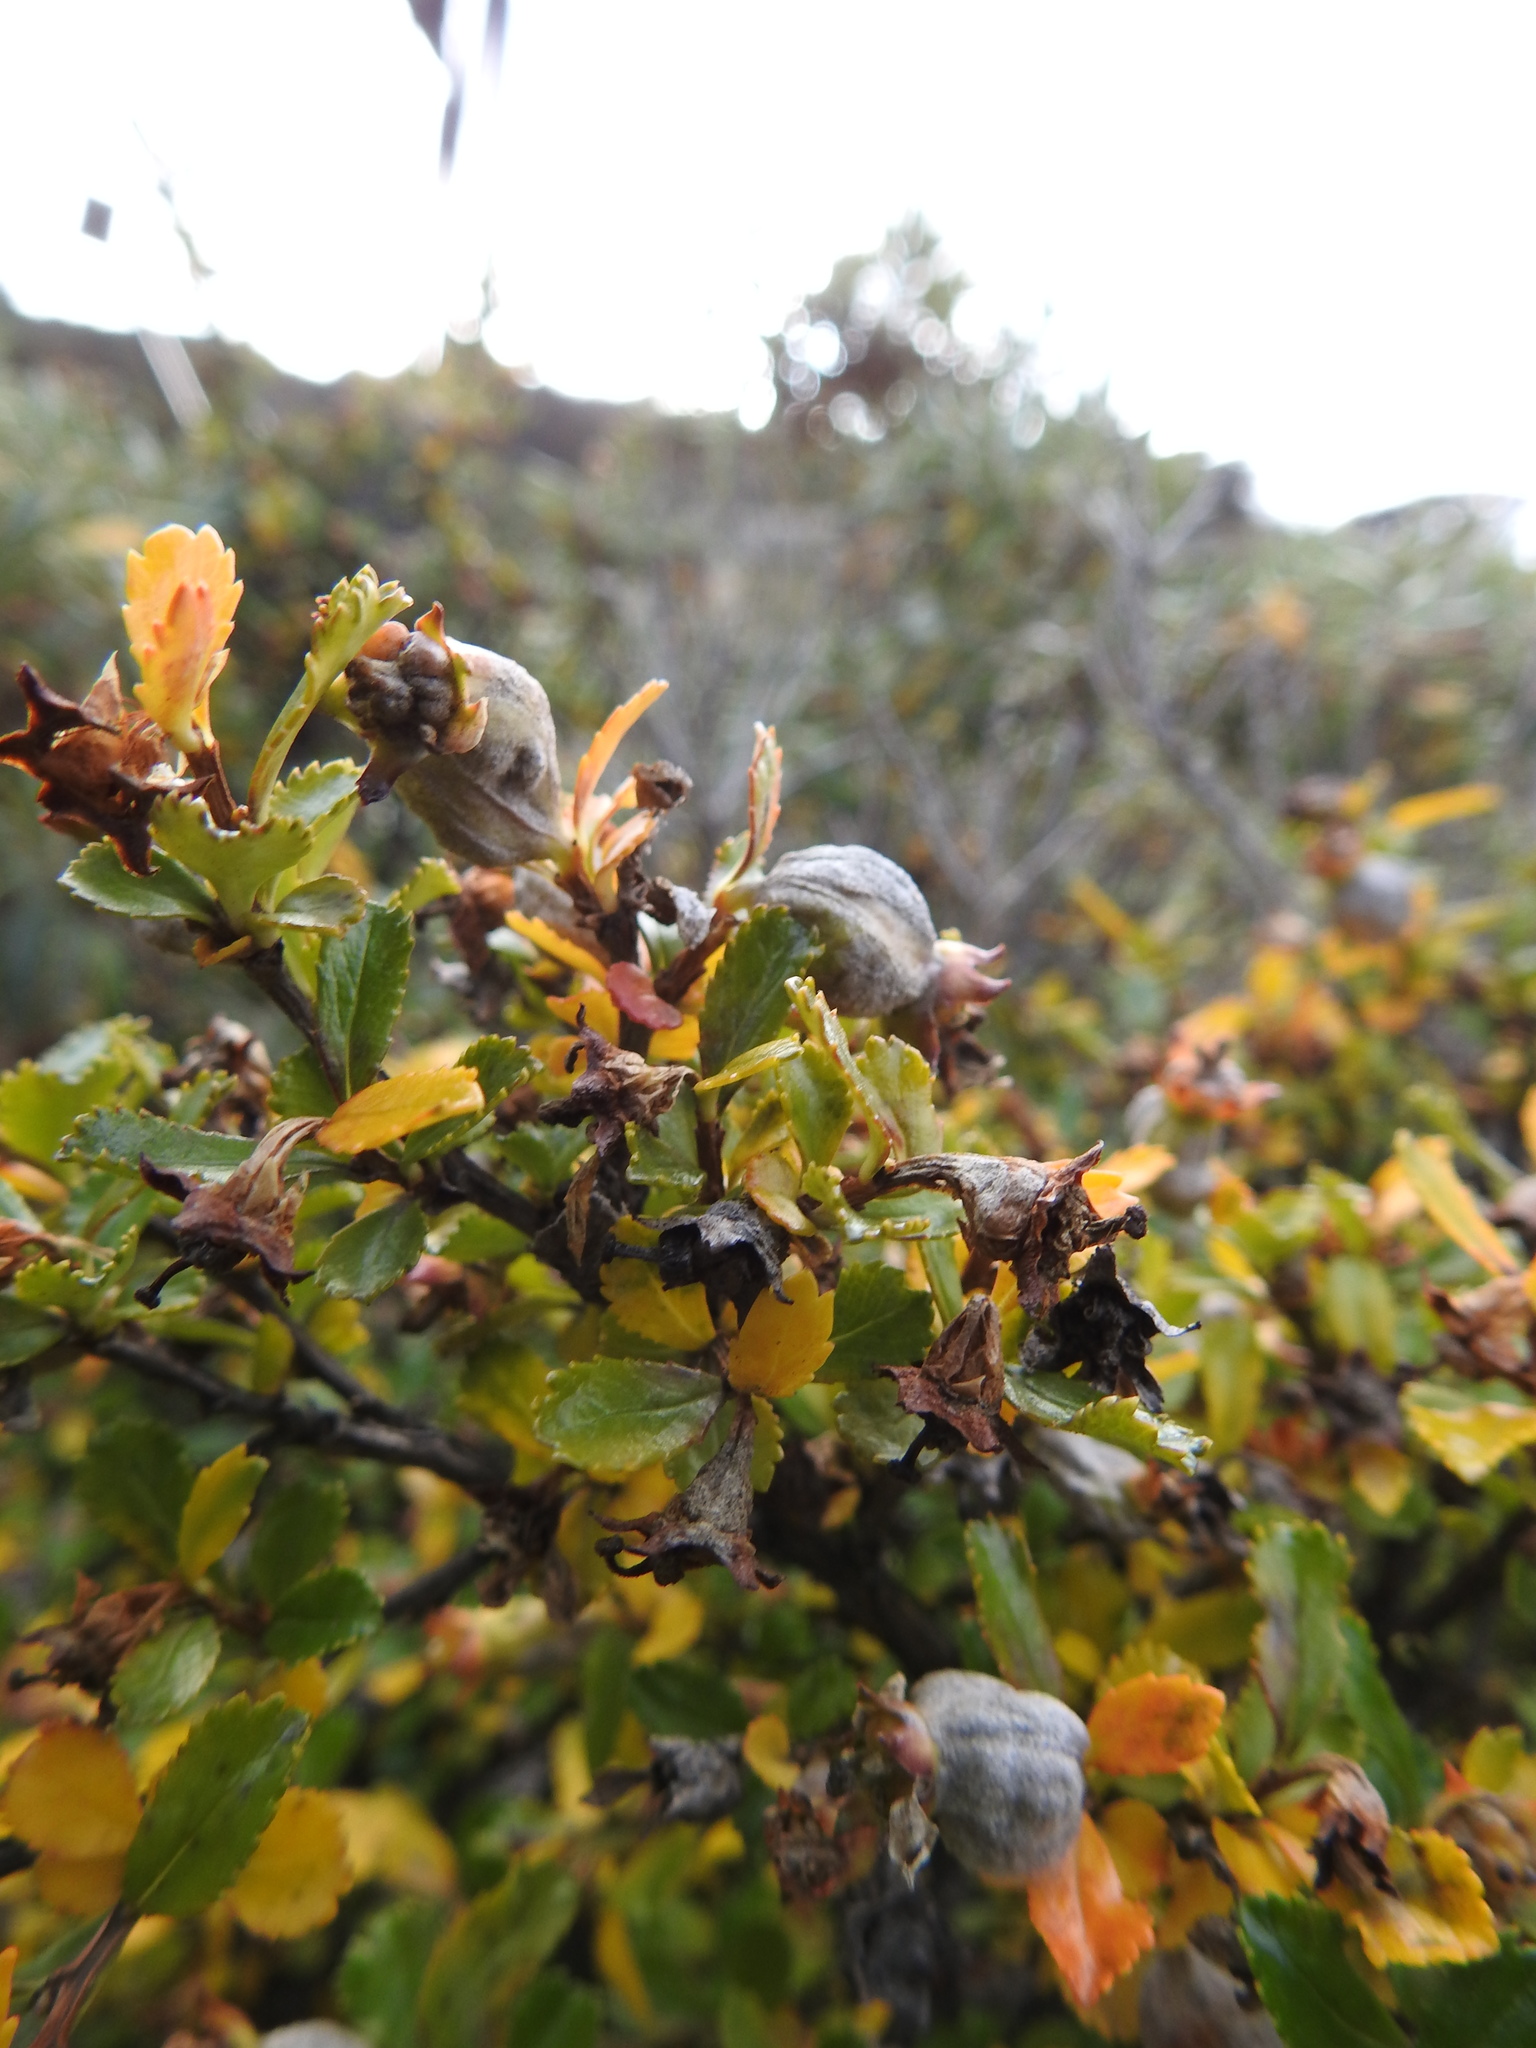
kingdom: Plantae
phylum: Tracheophyta
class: Magnoliopsida
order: Escalloniales
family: Escalloniaceae
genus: Escallonia
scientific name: Escallonia serrata
